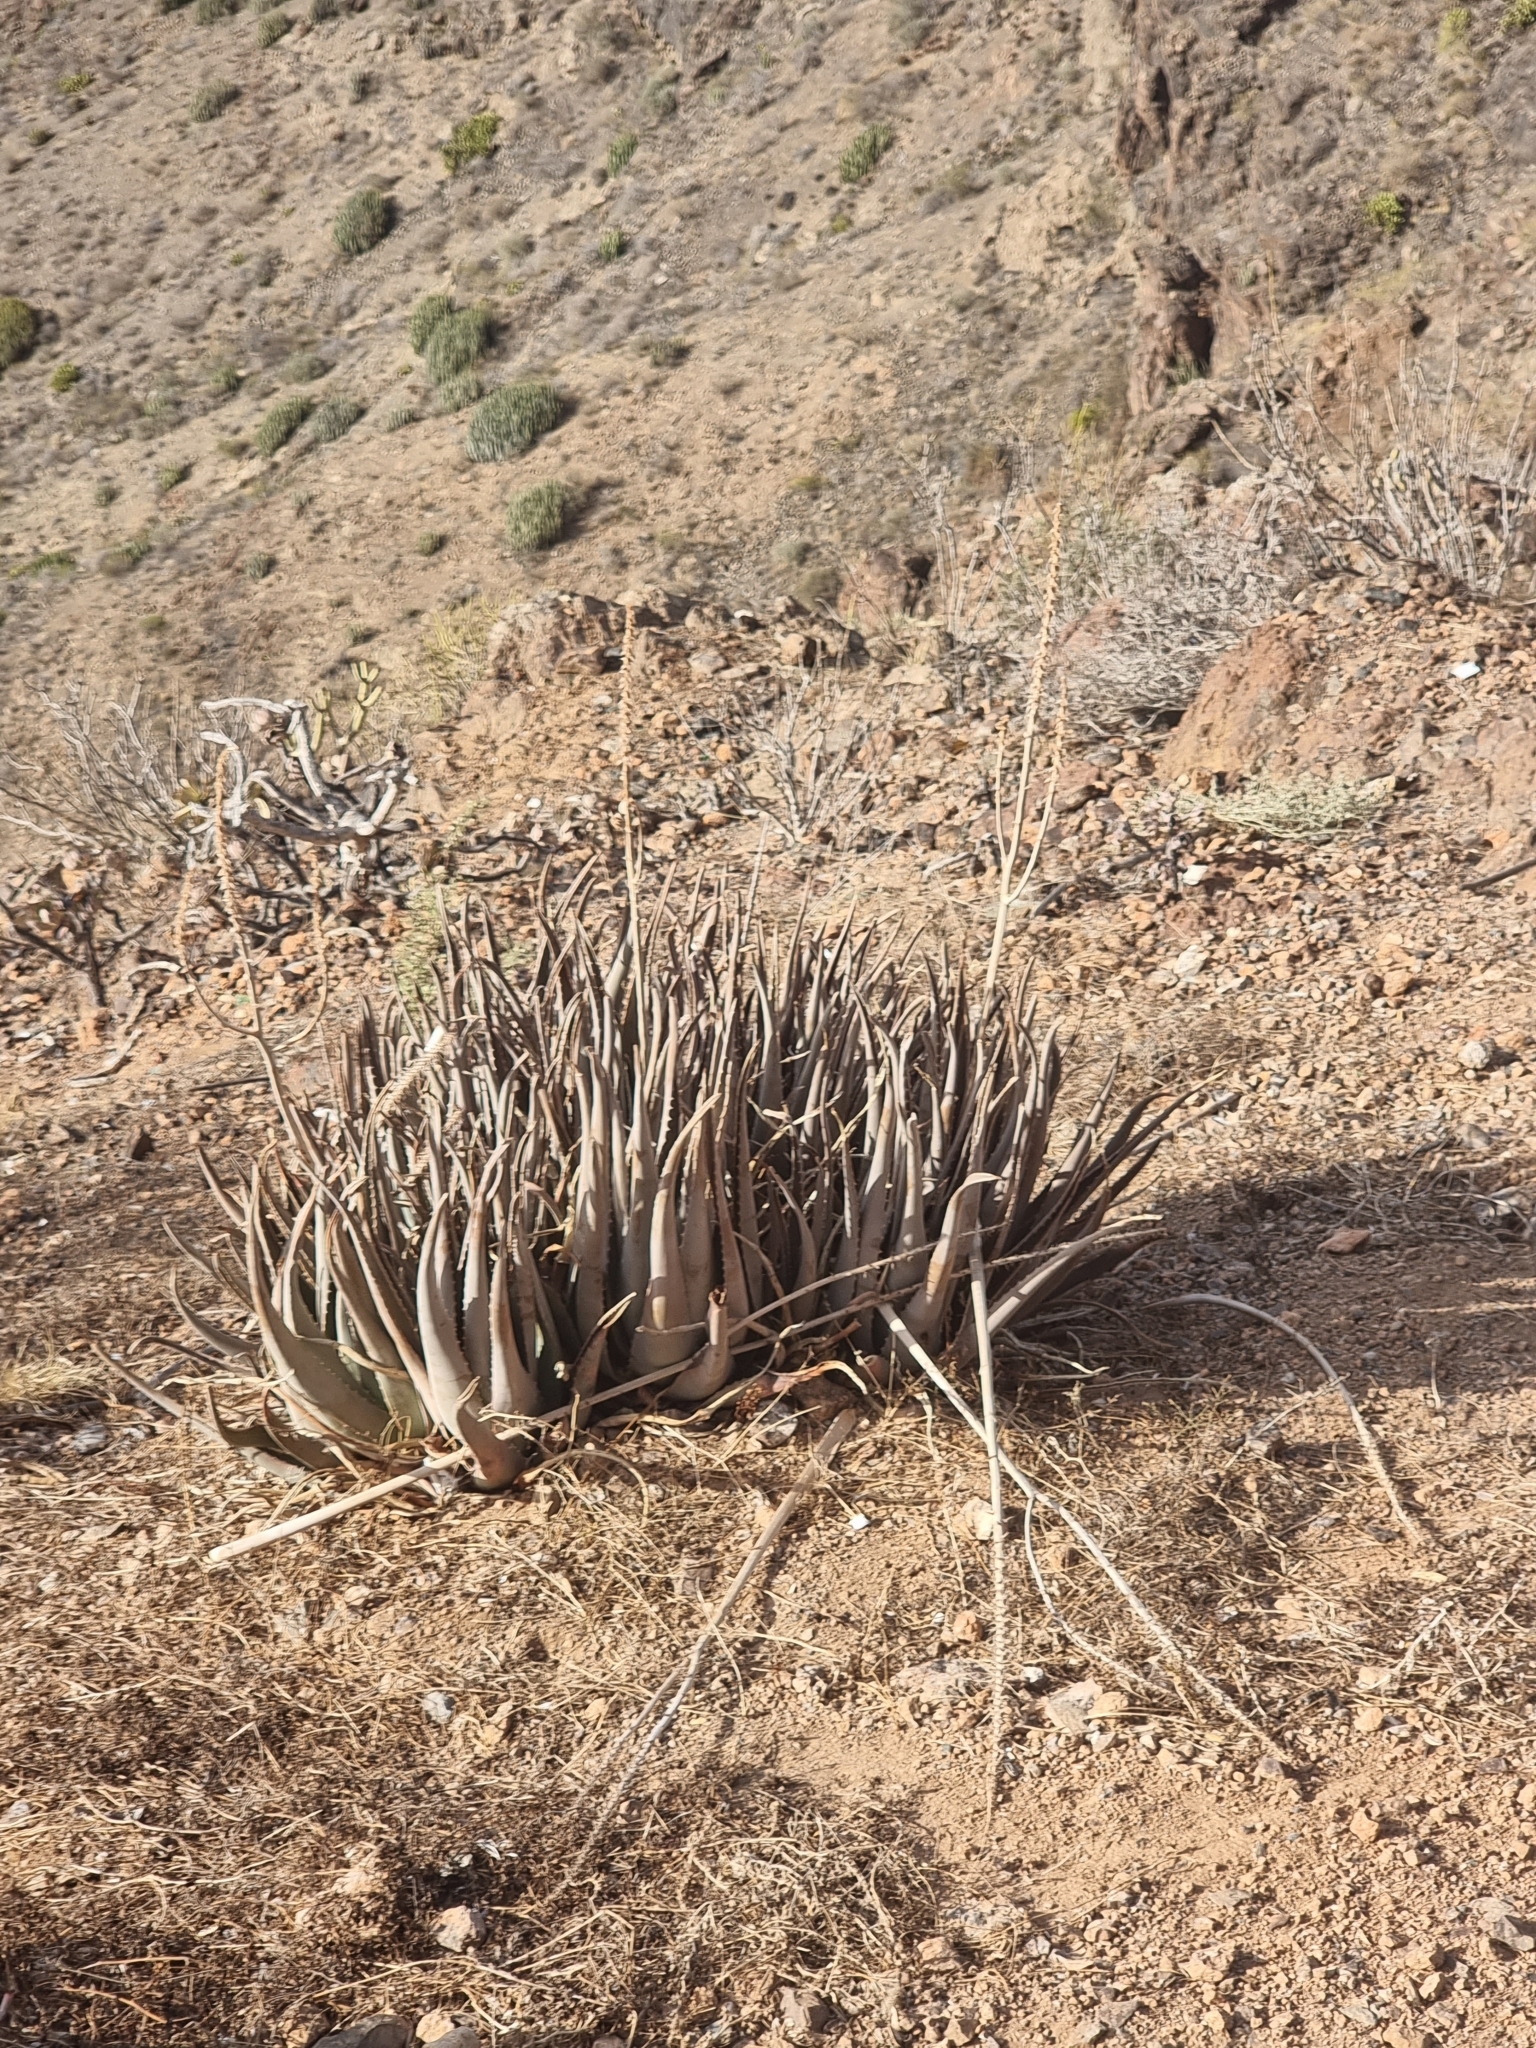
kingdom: Plantae
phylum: Tracheophyta
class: Liliopsida
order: Asparagales
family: Asphodelaceae
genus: Aloe
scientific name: Aloe vera
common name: Barbados aloe
